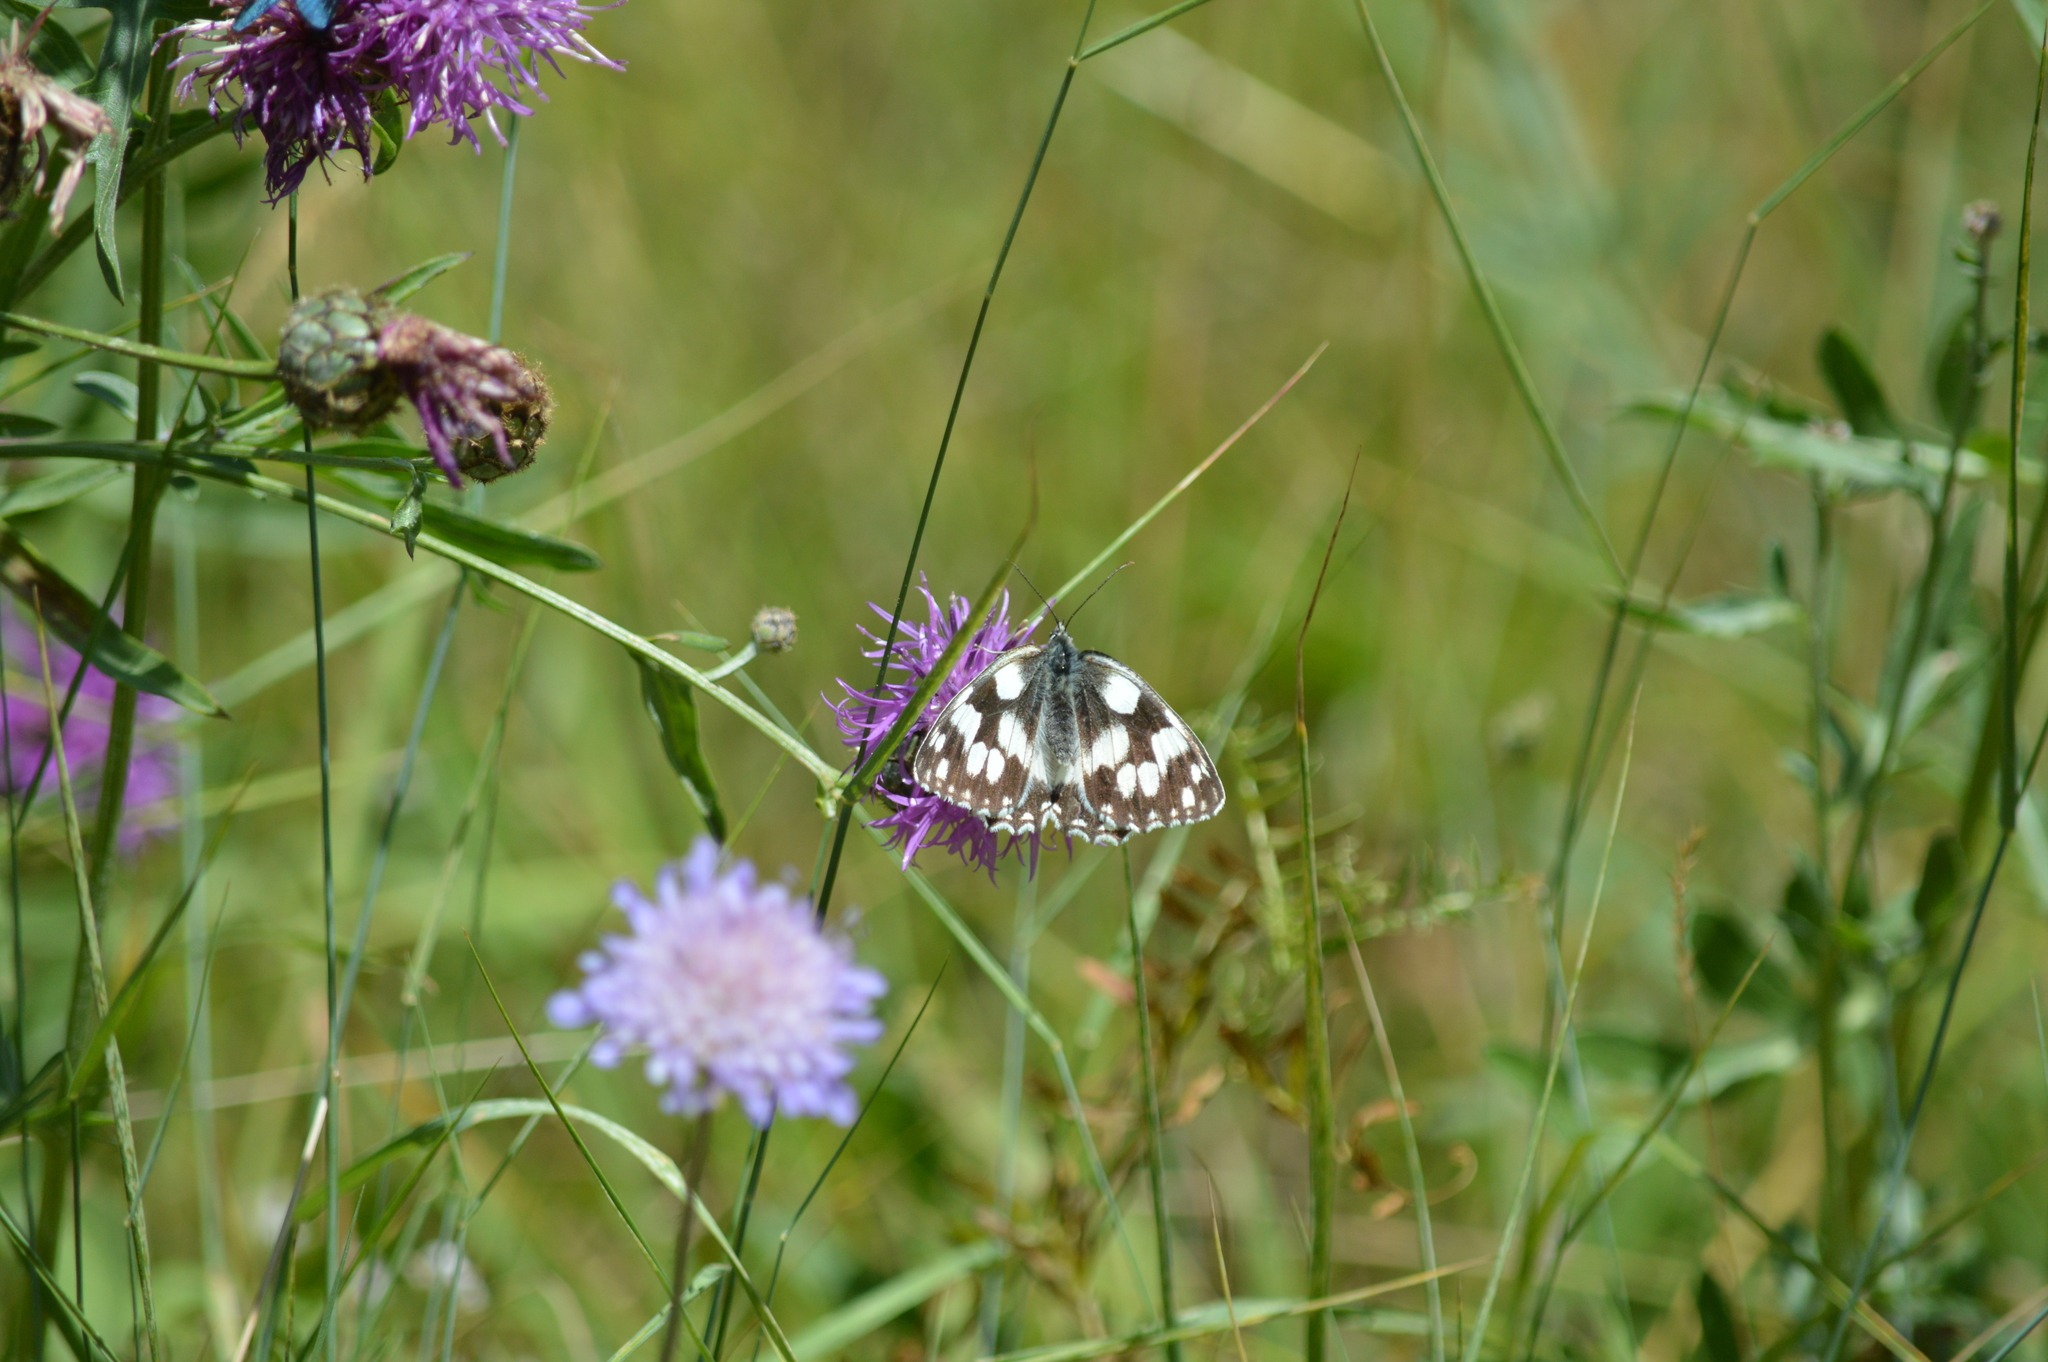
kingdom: Animalia
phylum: Arthropoda
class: Insecta
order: Lepidoptera
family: Nymphalidae
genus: Melanargia
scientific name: Melanargia galathea
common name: Marbled white
